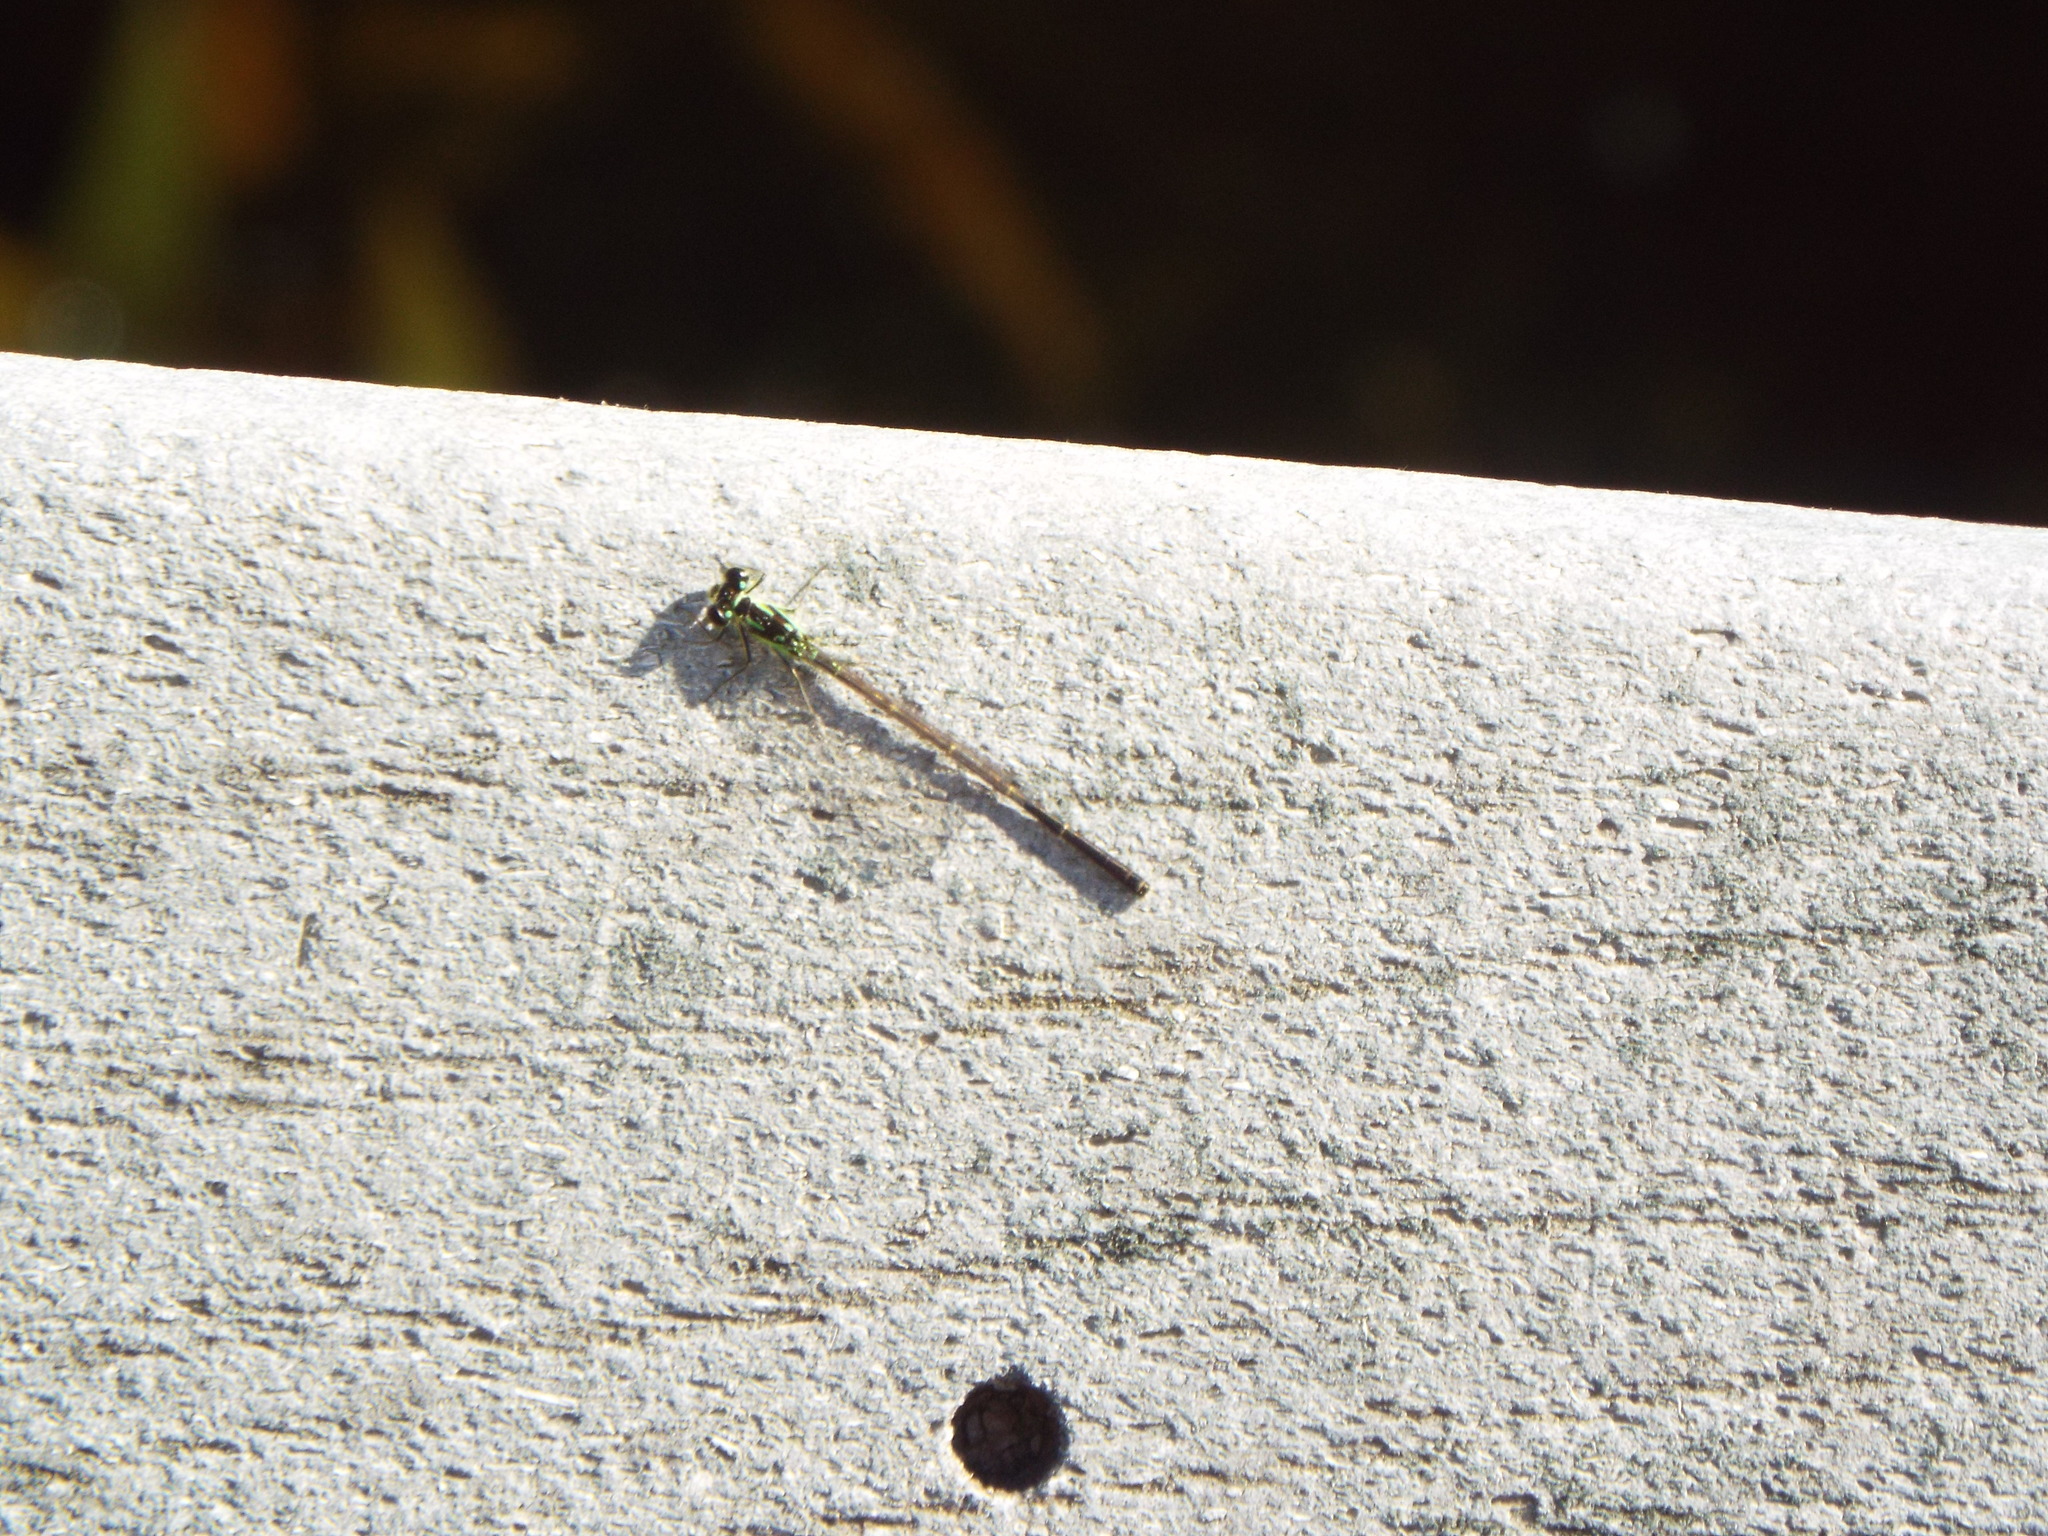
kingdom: Animalia
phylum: Arthropoda
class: Insecta
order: Odonata
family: Coenagrionidae
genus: Ischnura
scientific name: Ischnura posita
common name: Fragile forktail
